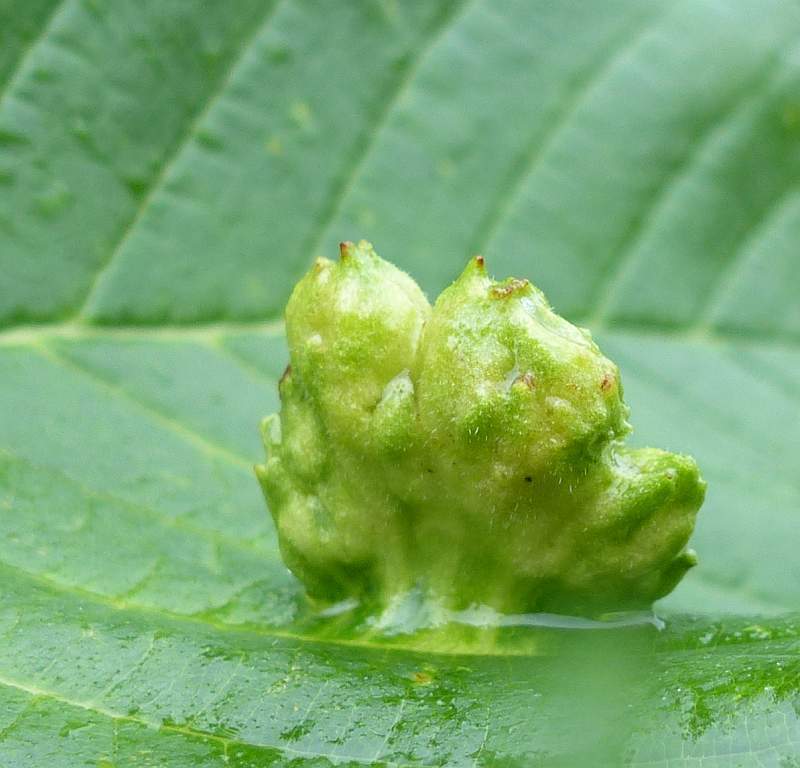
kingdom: Animalia
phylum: Arthropoda
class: Insecta
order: Hemiptera
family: Aphididae
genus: Colopha
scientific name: Colopha ulmicola
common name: Elm cockscombgall aphid
